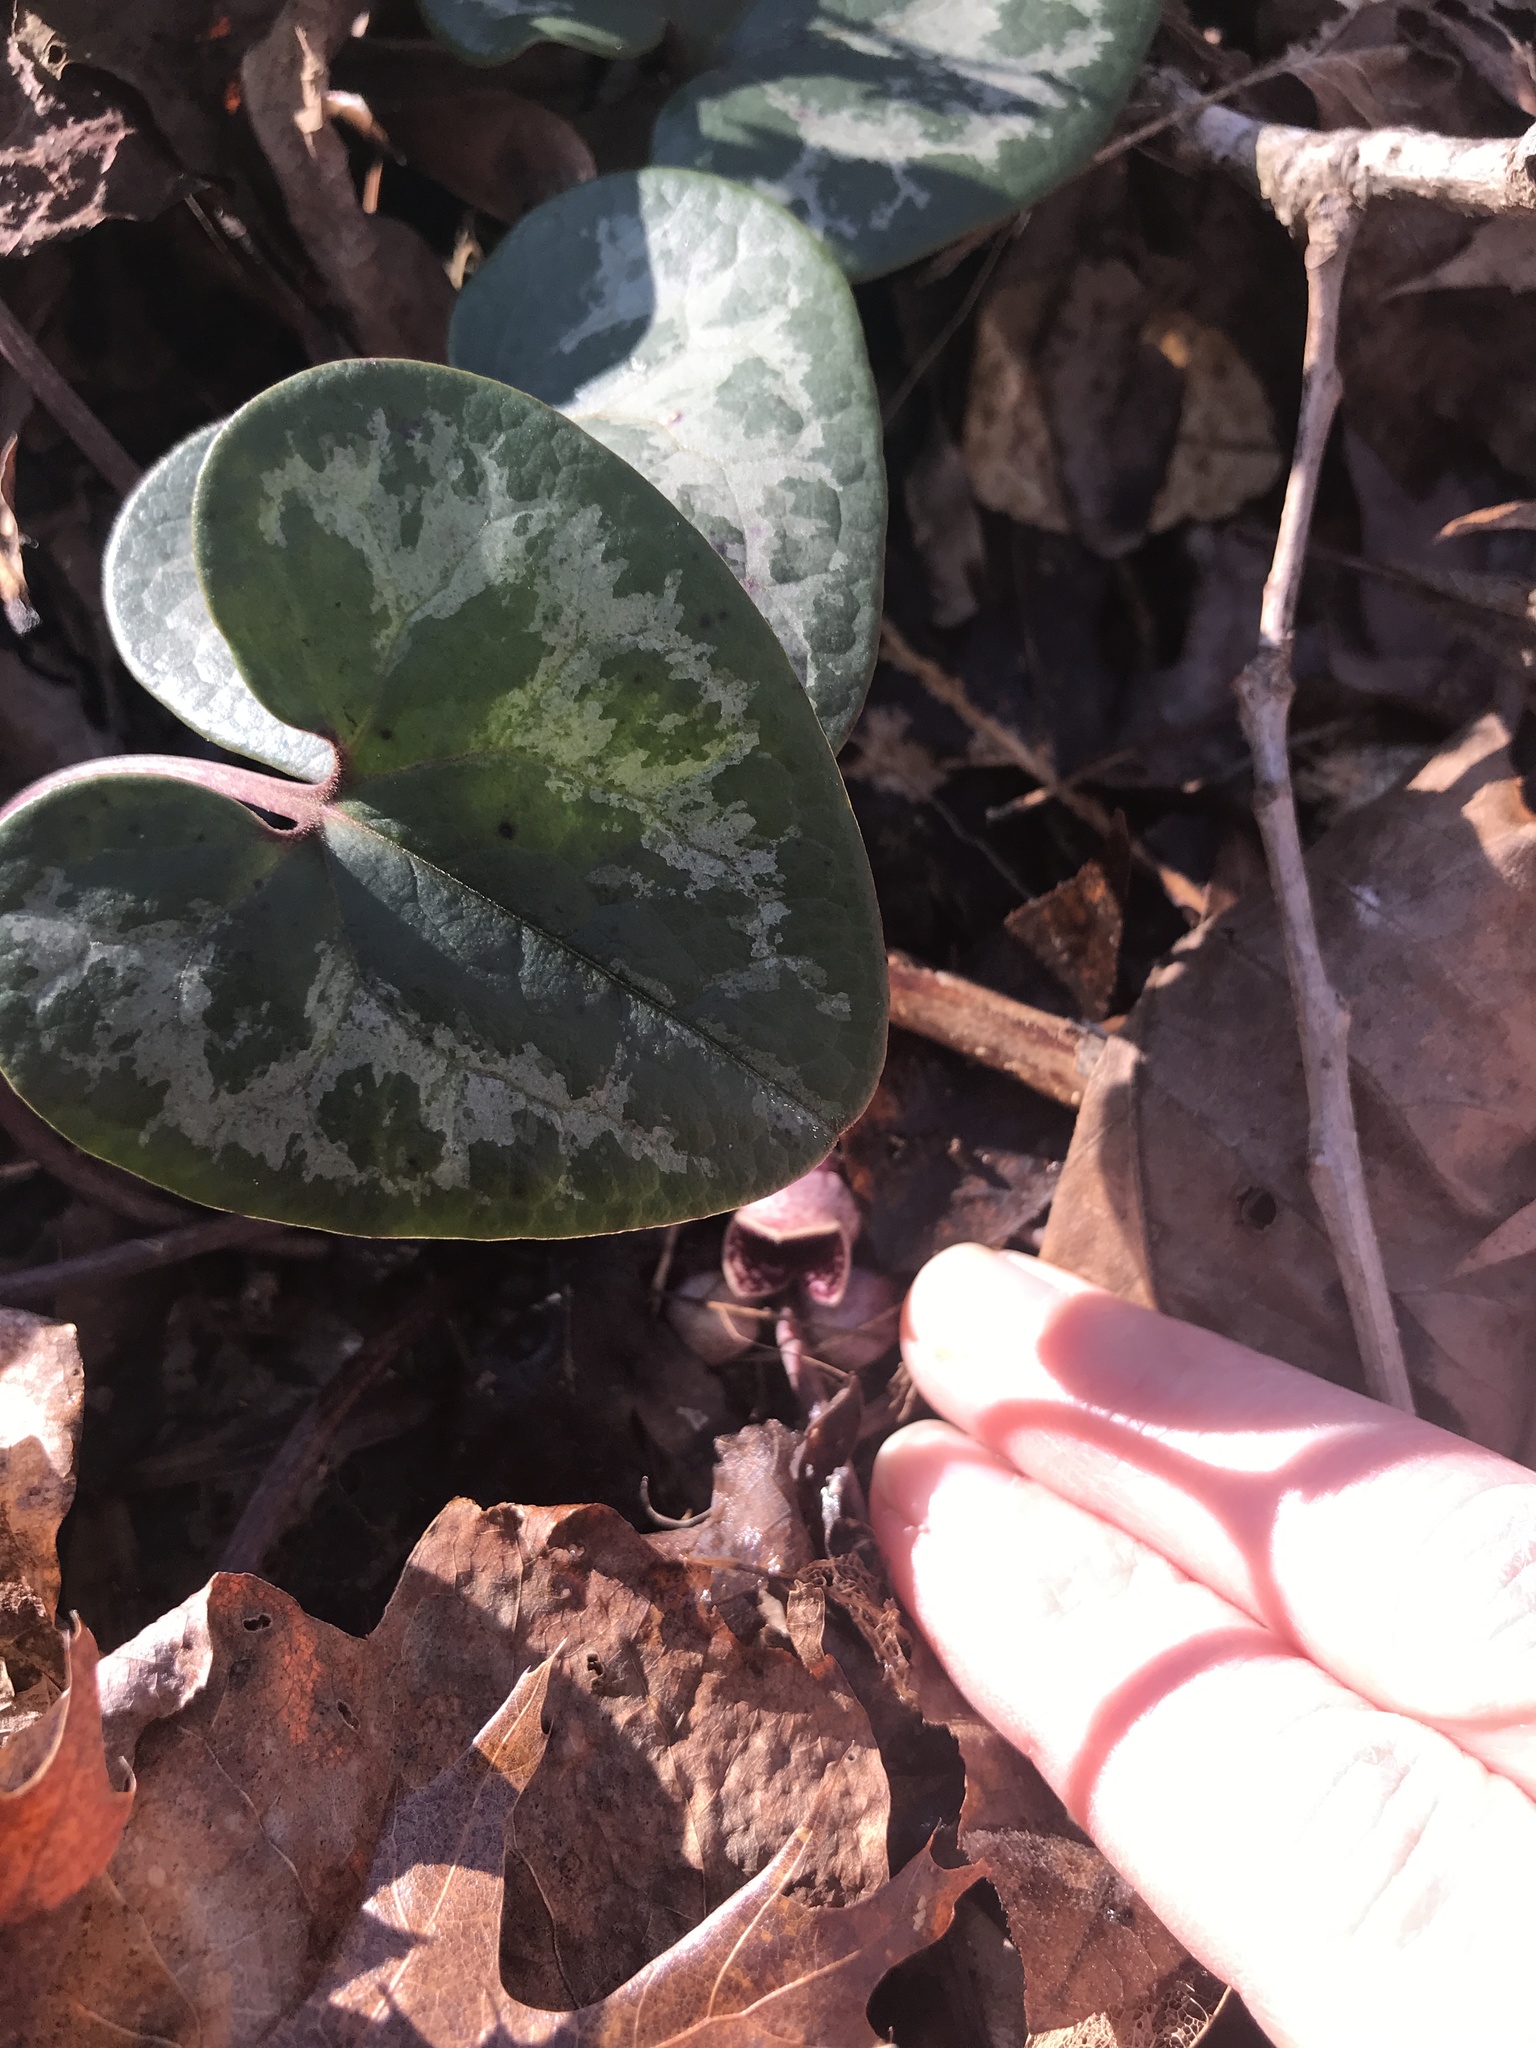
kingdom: Plantae
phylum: Tracheophyta
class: Magnoliopsida
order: Piperales
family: Aristolochiaceae
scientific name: Aristolochiaceae
